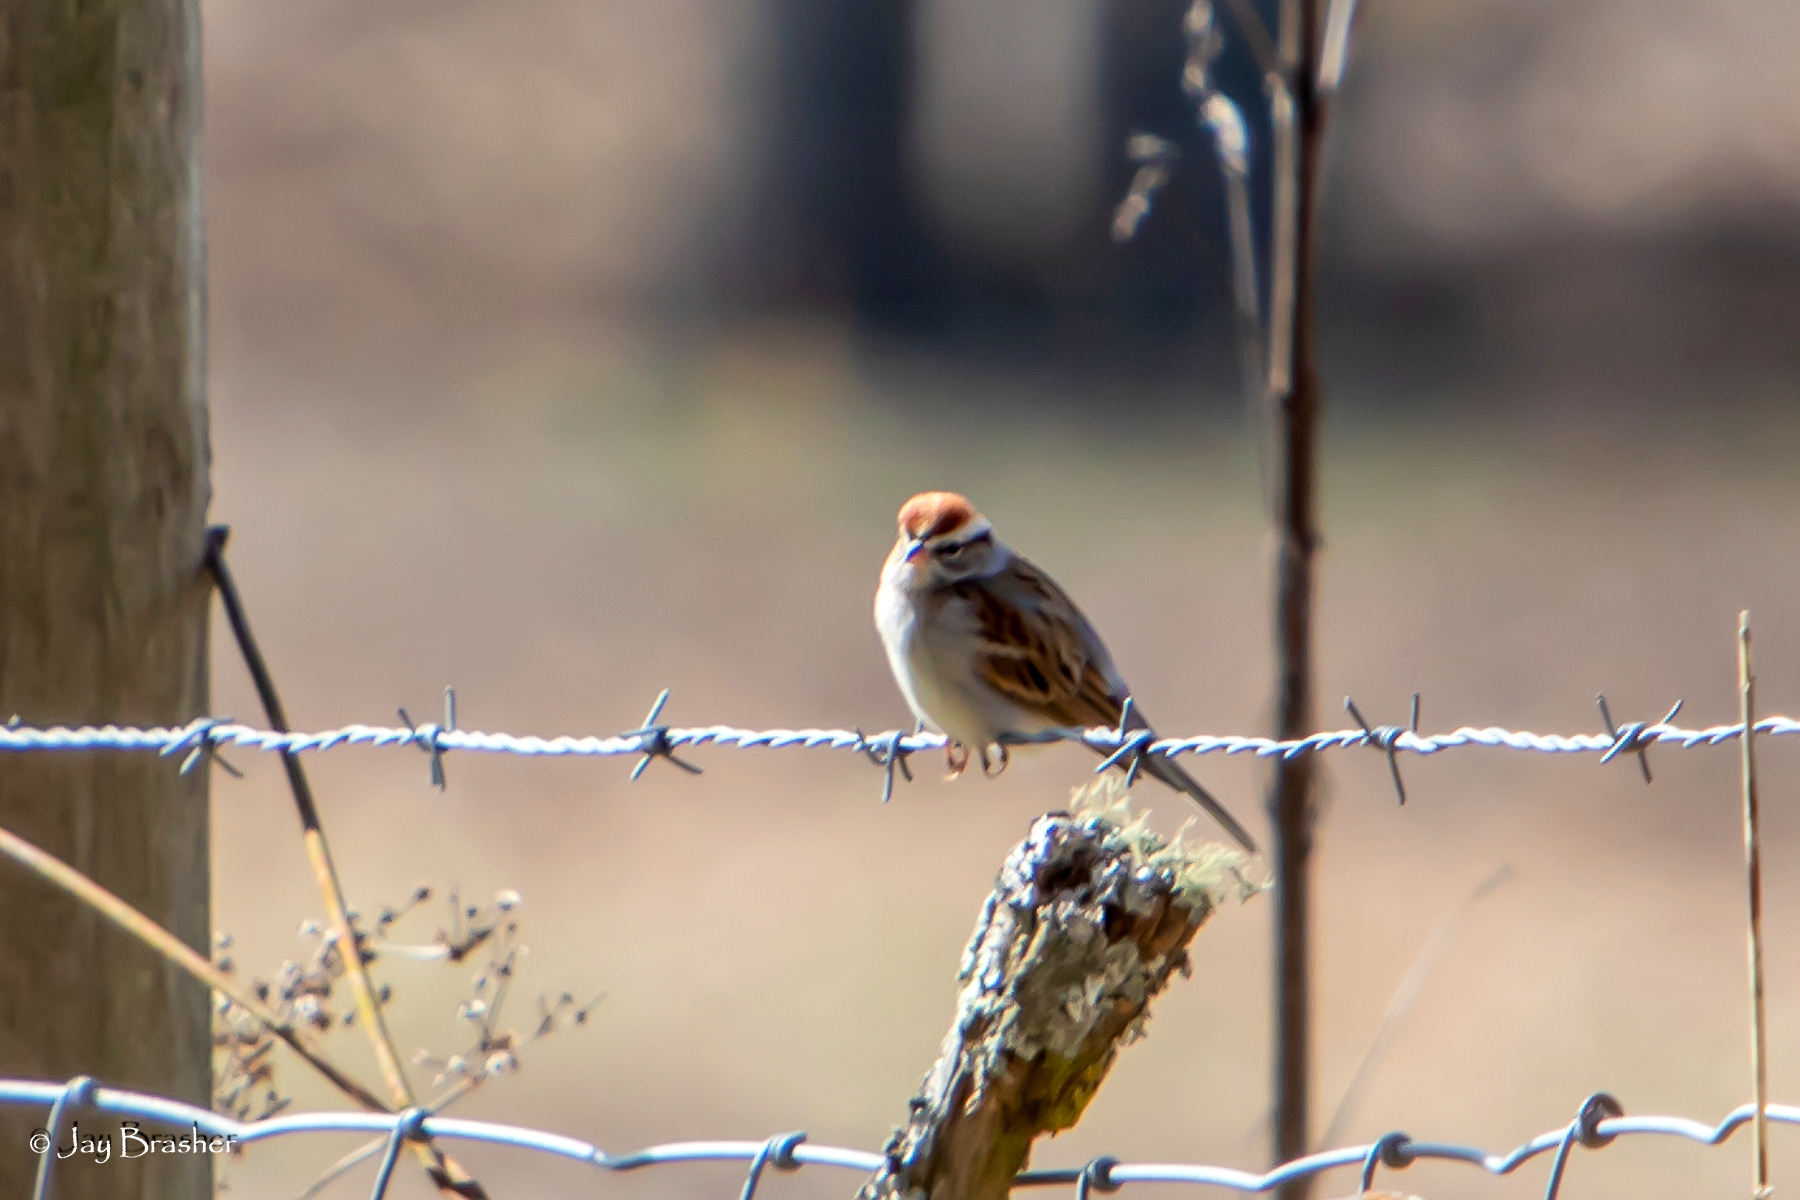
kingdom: Animalia
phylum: Chordata
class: Aves
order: Passeriformes
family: Passerellidae
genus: Spizella
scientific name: Spizella passerina
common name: Chipping sparrow
